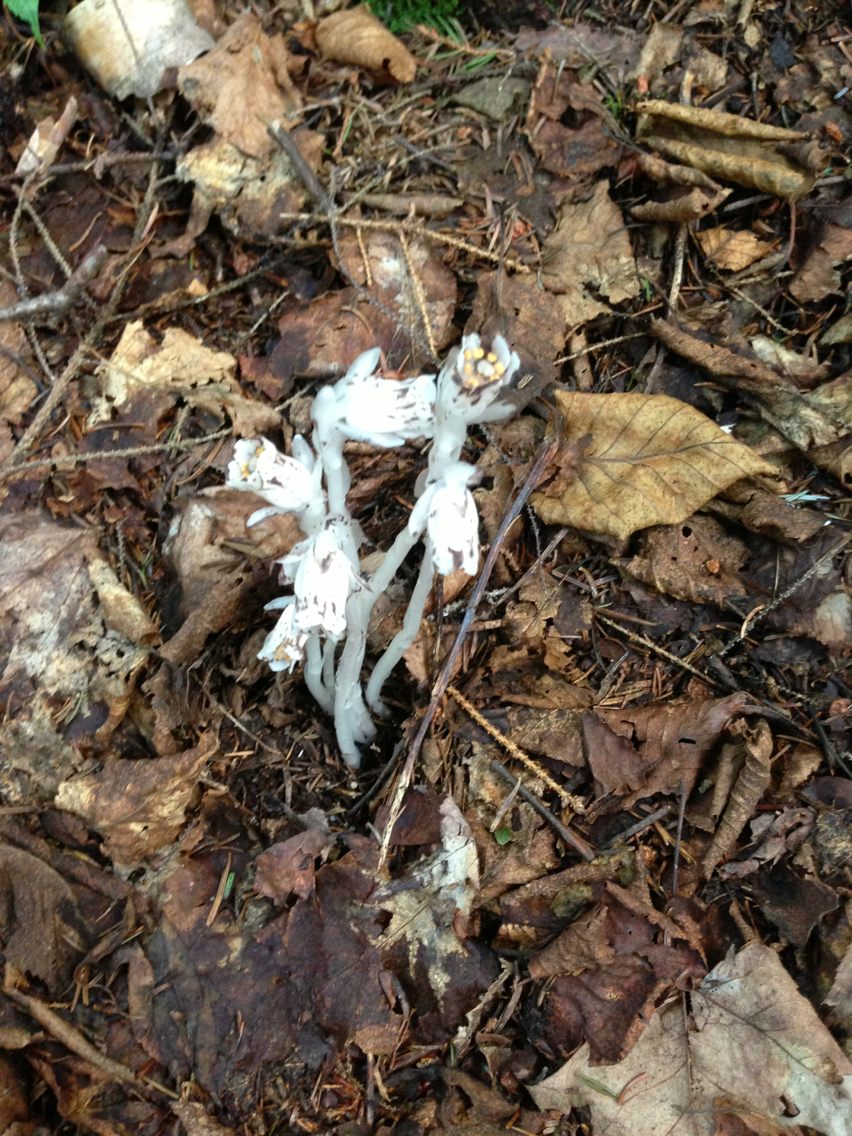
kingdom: Plantae
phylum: Tracheophyta
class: Magnoliopsida
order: Ericales
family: Ericaceae
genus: Monotropa
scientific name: Monotropa uniflora
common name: Convulsion root
